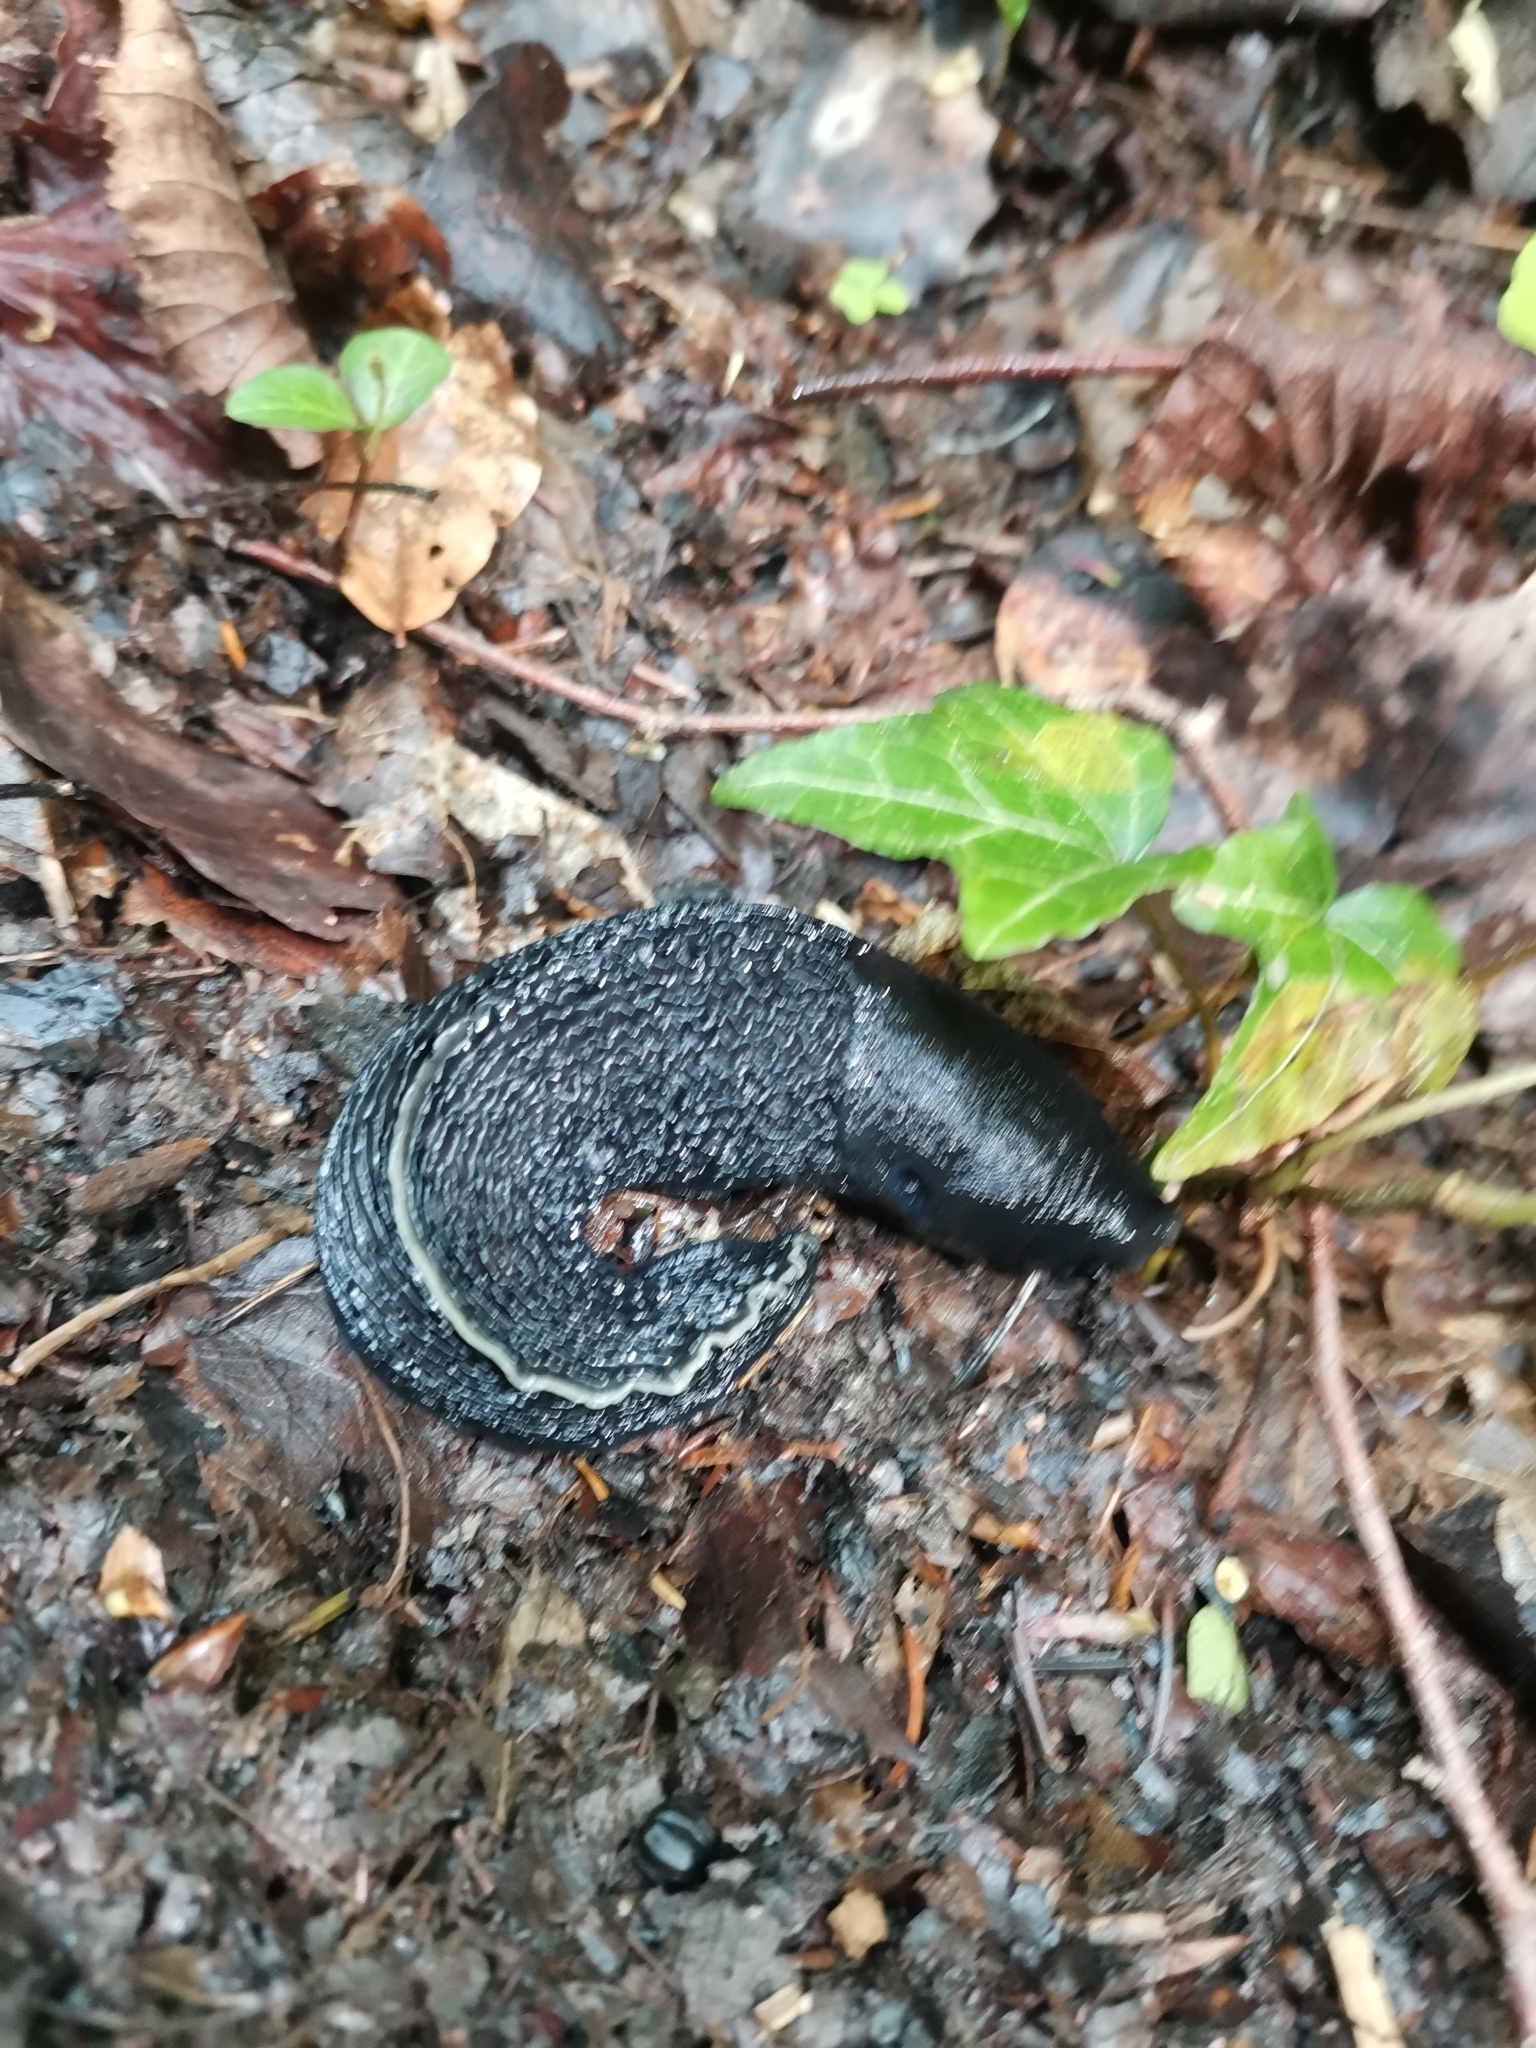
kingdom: Animalia
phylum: Mollusca
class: Gastropoda
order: Stylommatophora
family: Limacidae
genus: Limax
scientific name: Limax cinereoniger
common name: Ash-black slug
